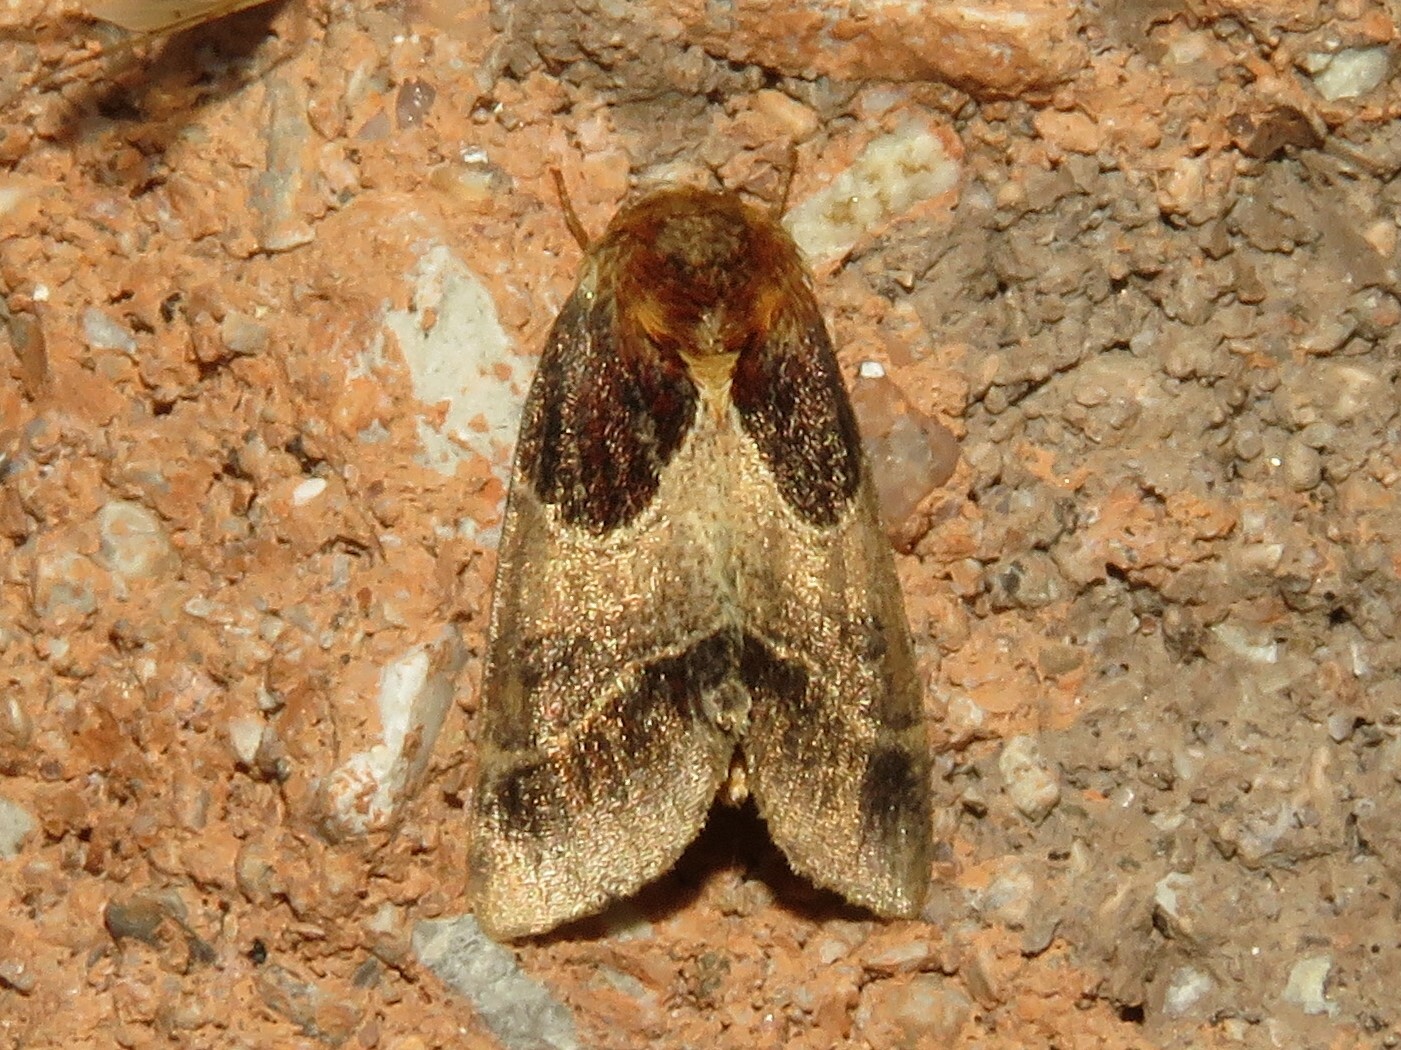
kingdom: Animalia
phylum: Arthropoda
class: Insecta
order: Lepidoptera
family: Noctuidae
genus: Schinia
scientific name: Schinia arcigera
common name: Arcigera flower moth
